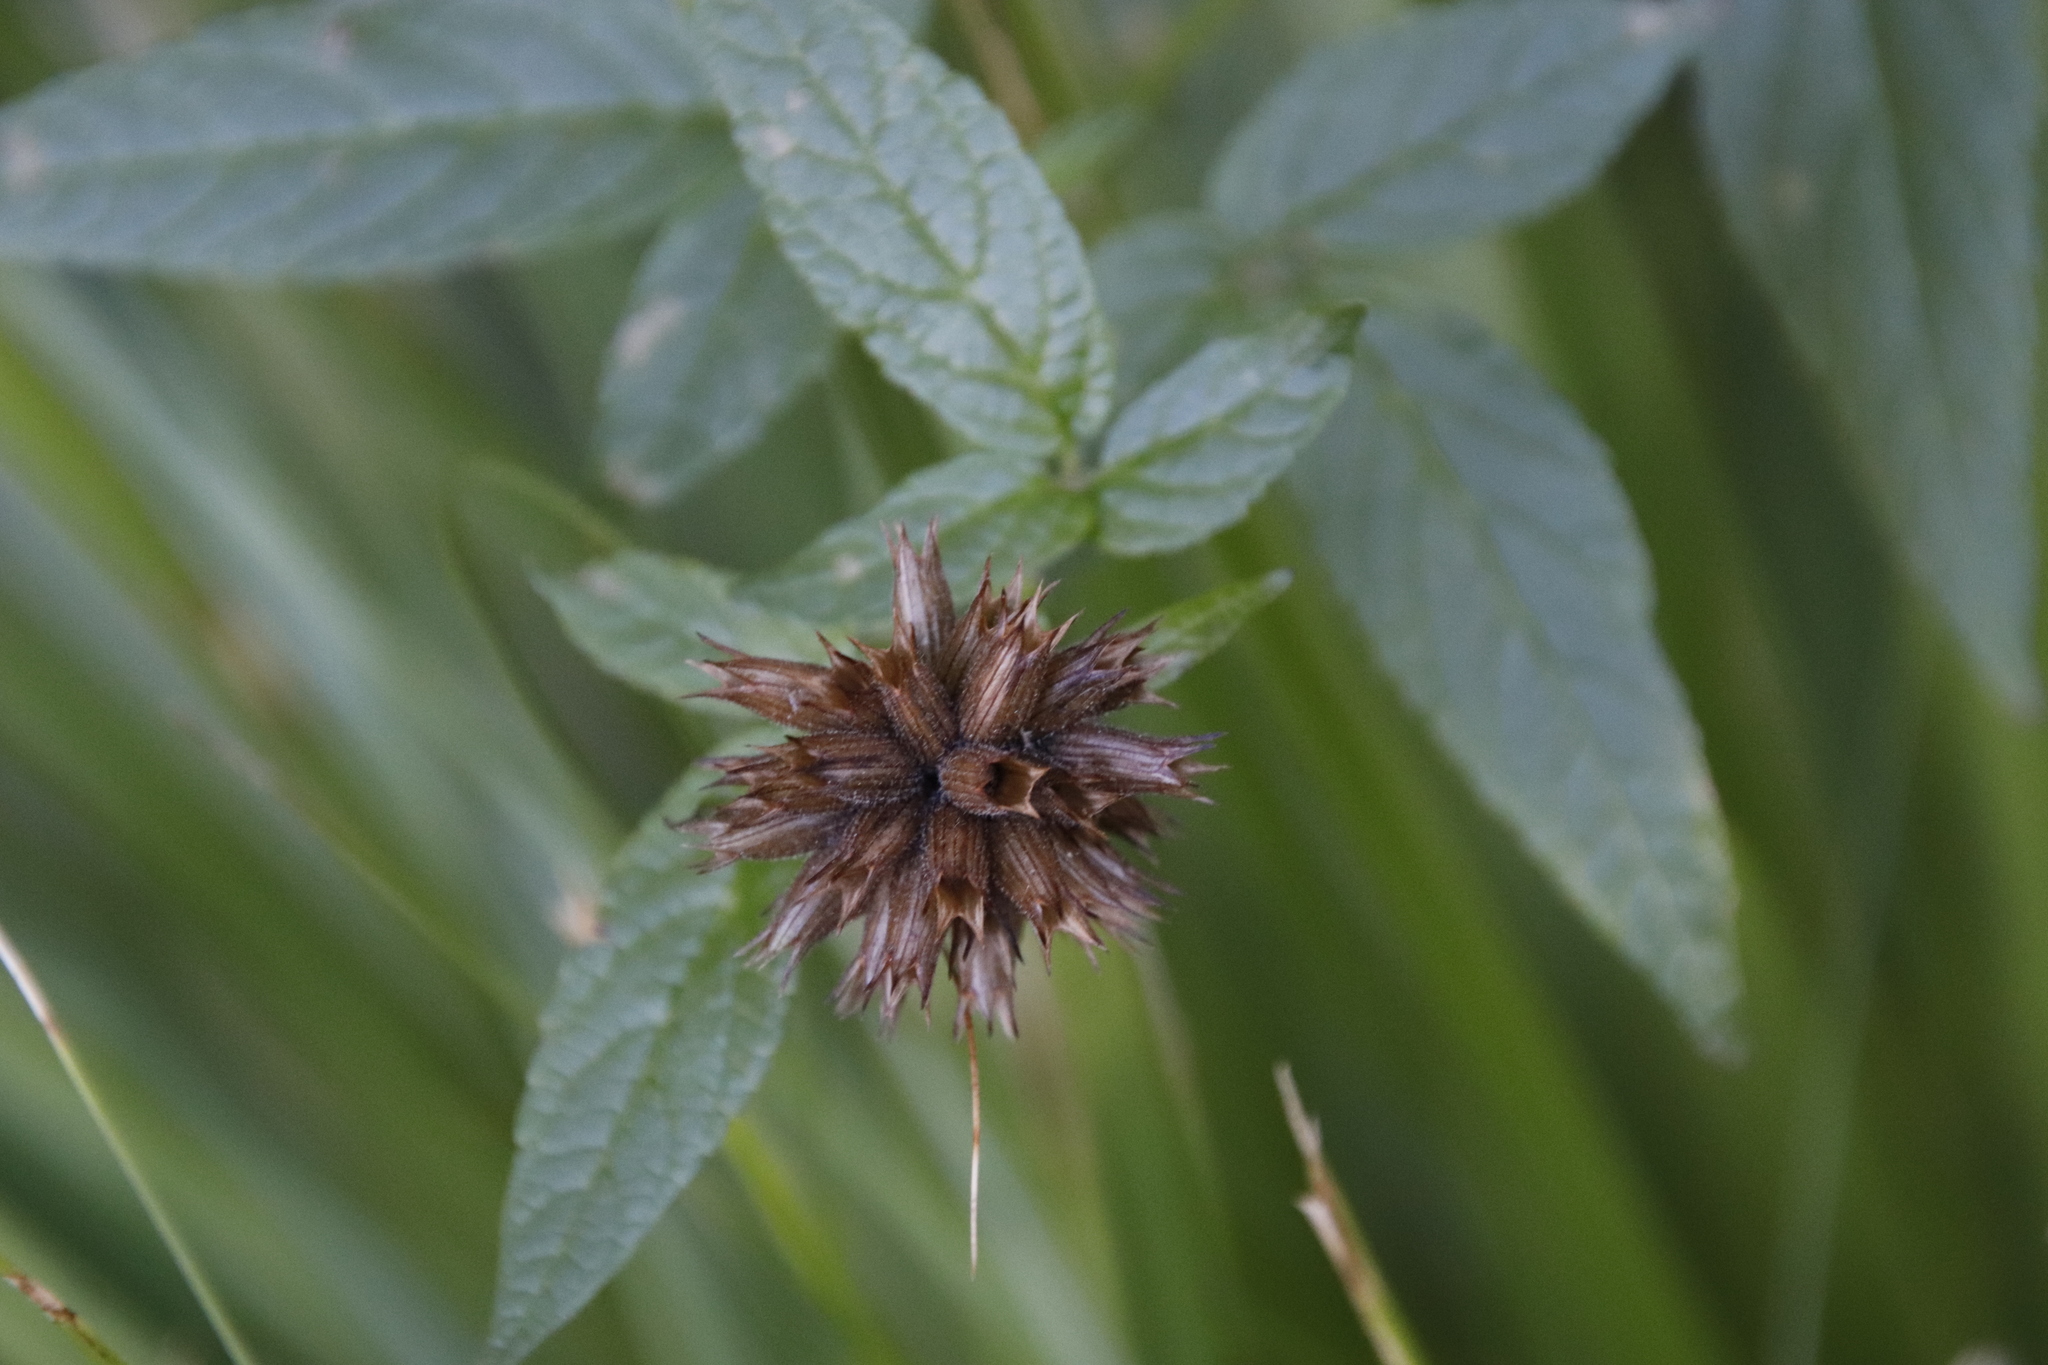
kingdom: Plantae
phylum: Tracheophyta
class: Magnoliopsida
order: Lamiales
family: Lamiaceae
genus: Cedronella
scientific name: Cedronella canariensis
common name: Canary islands balm
